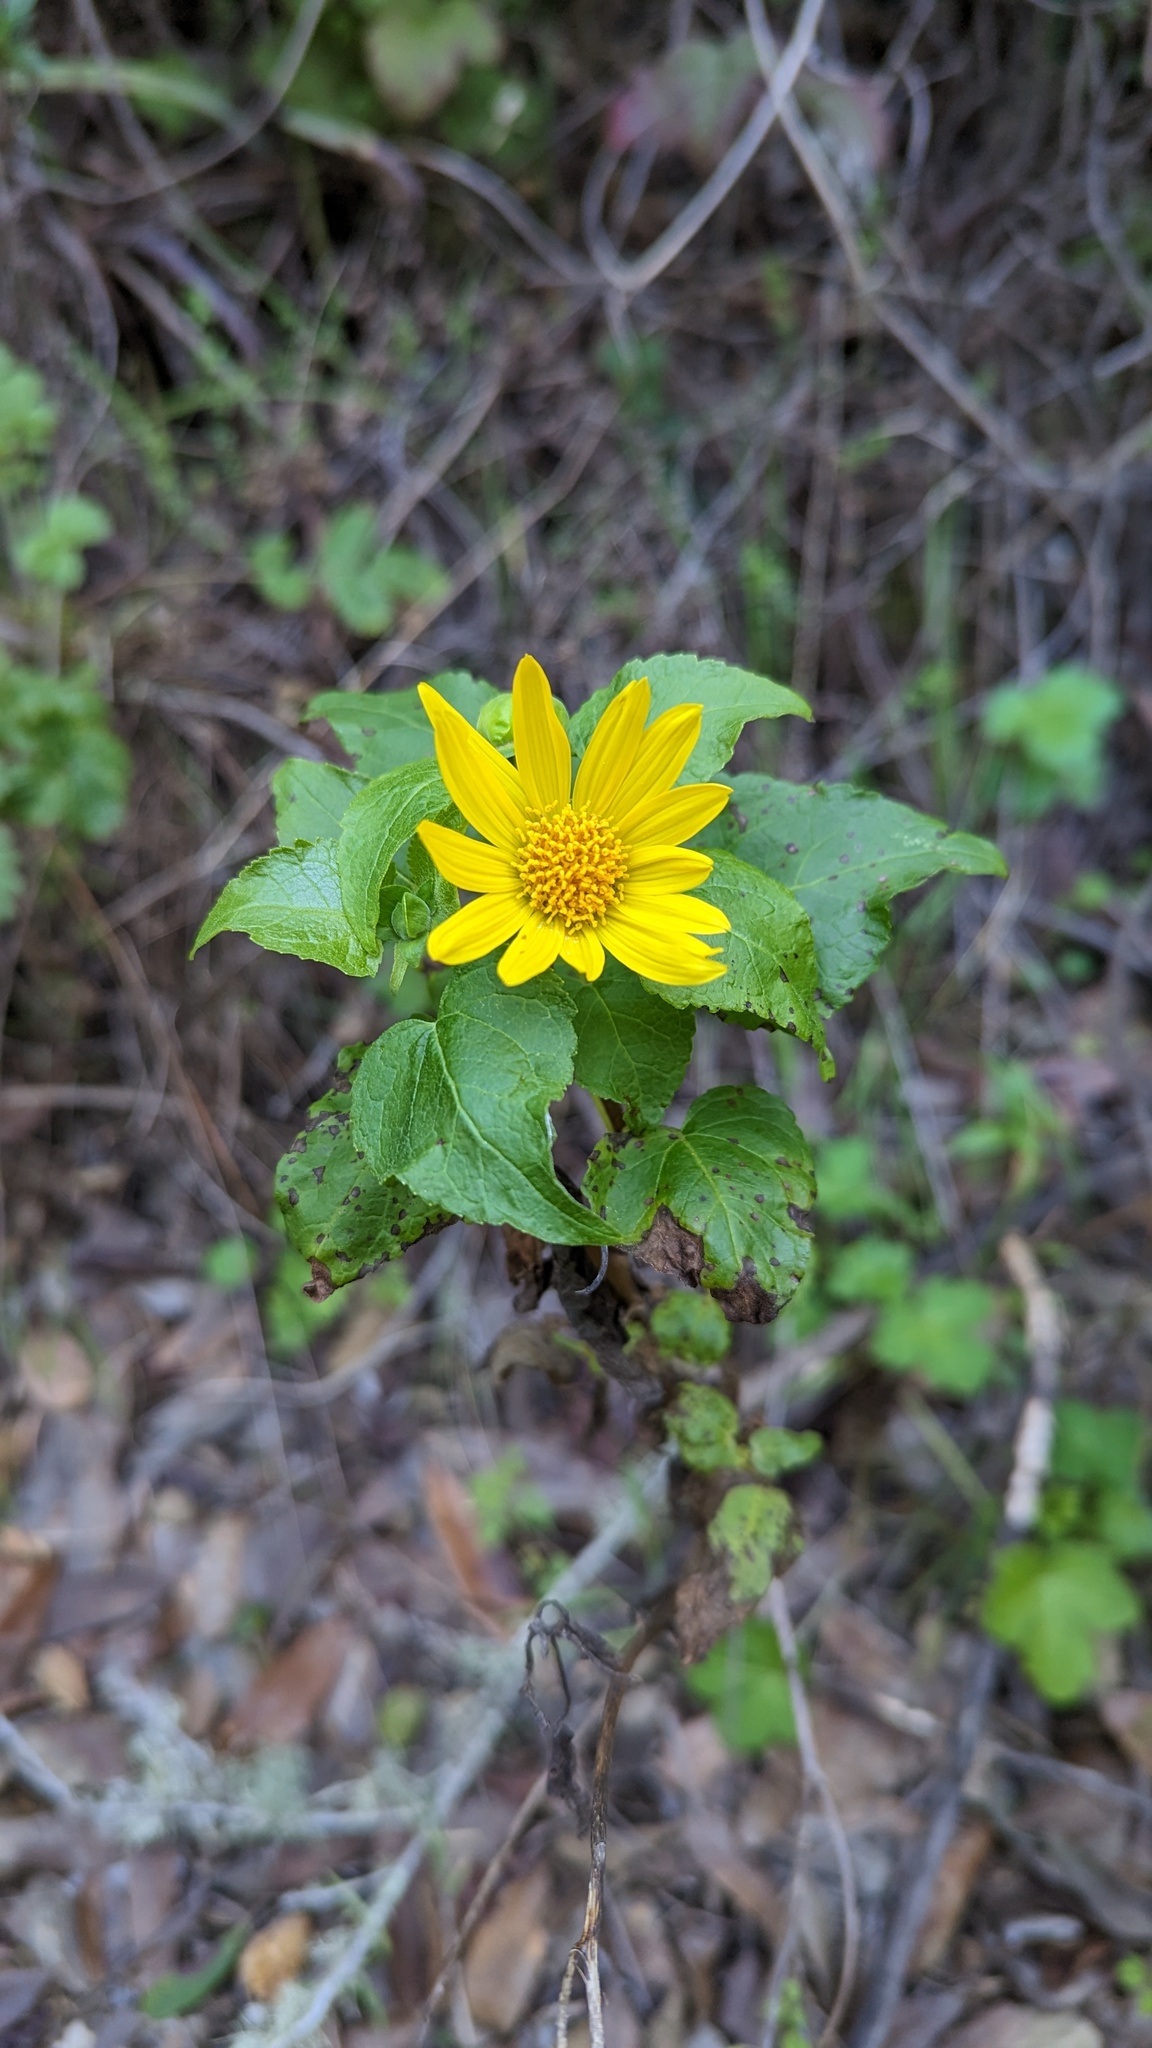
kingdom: Plantae
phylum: Tracheophyta
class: Magnoliopsida
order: Asterales
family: Asteraceae
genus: Venegasia
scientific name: Venegasia carpesioides
